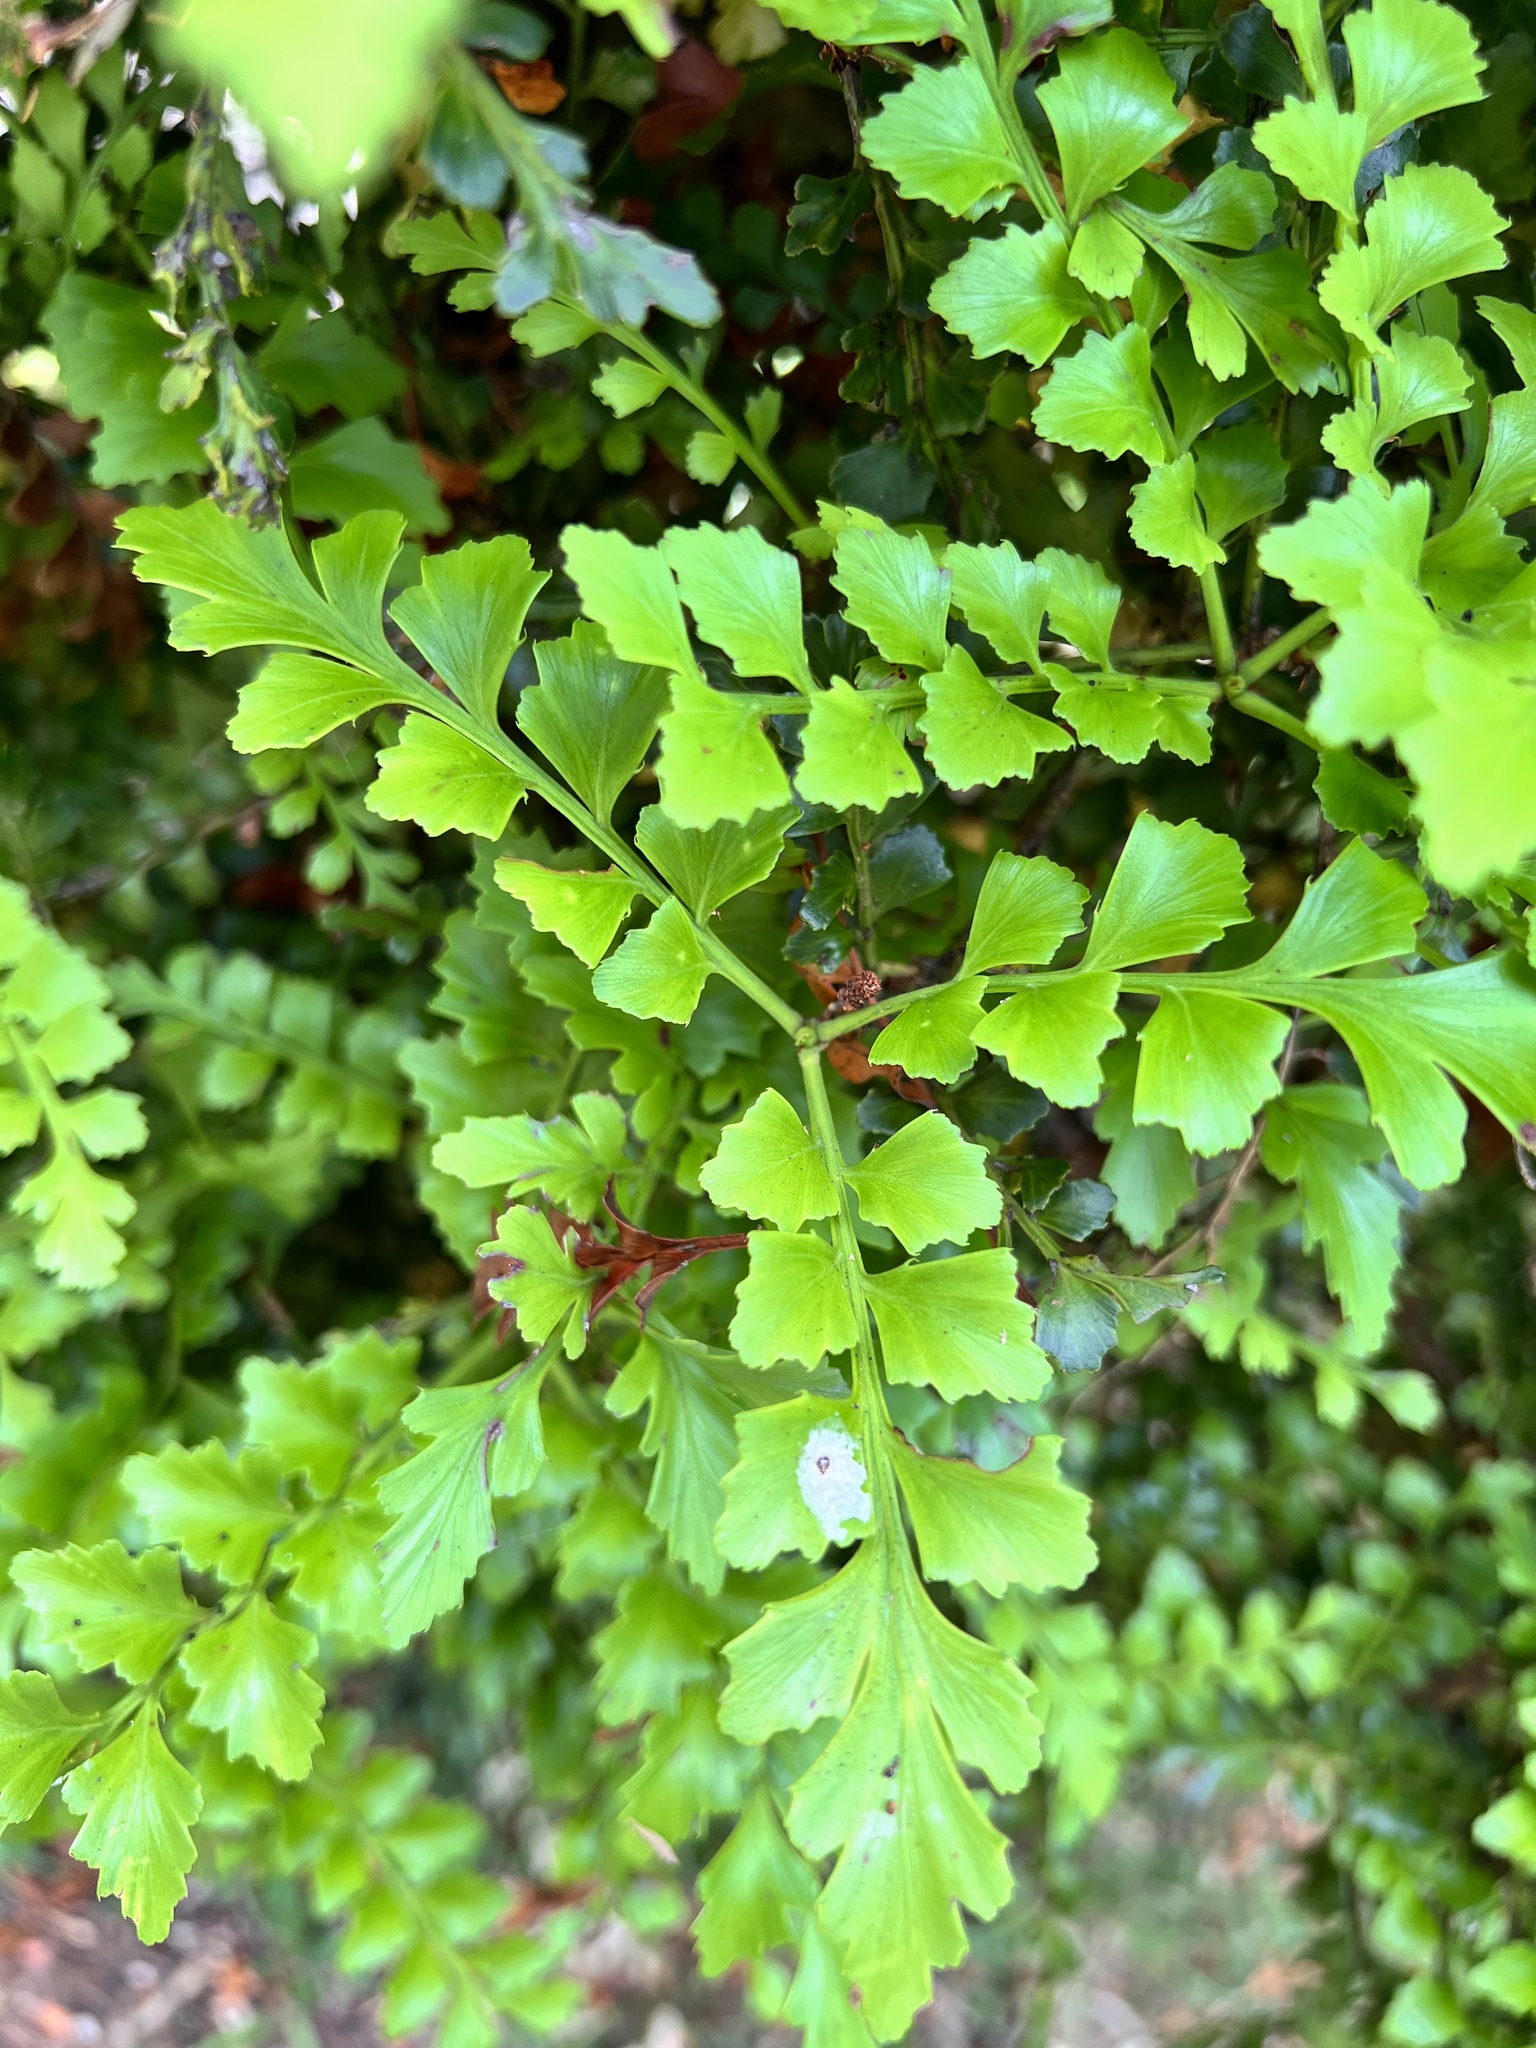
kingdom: Plantae
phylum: Tracheophyta
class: Pinopsida
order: Pinales
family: Phyllocladaceae
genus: Phyllocladus
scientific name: Phyllocladus trichomanoides
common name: Celery pine
